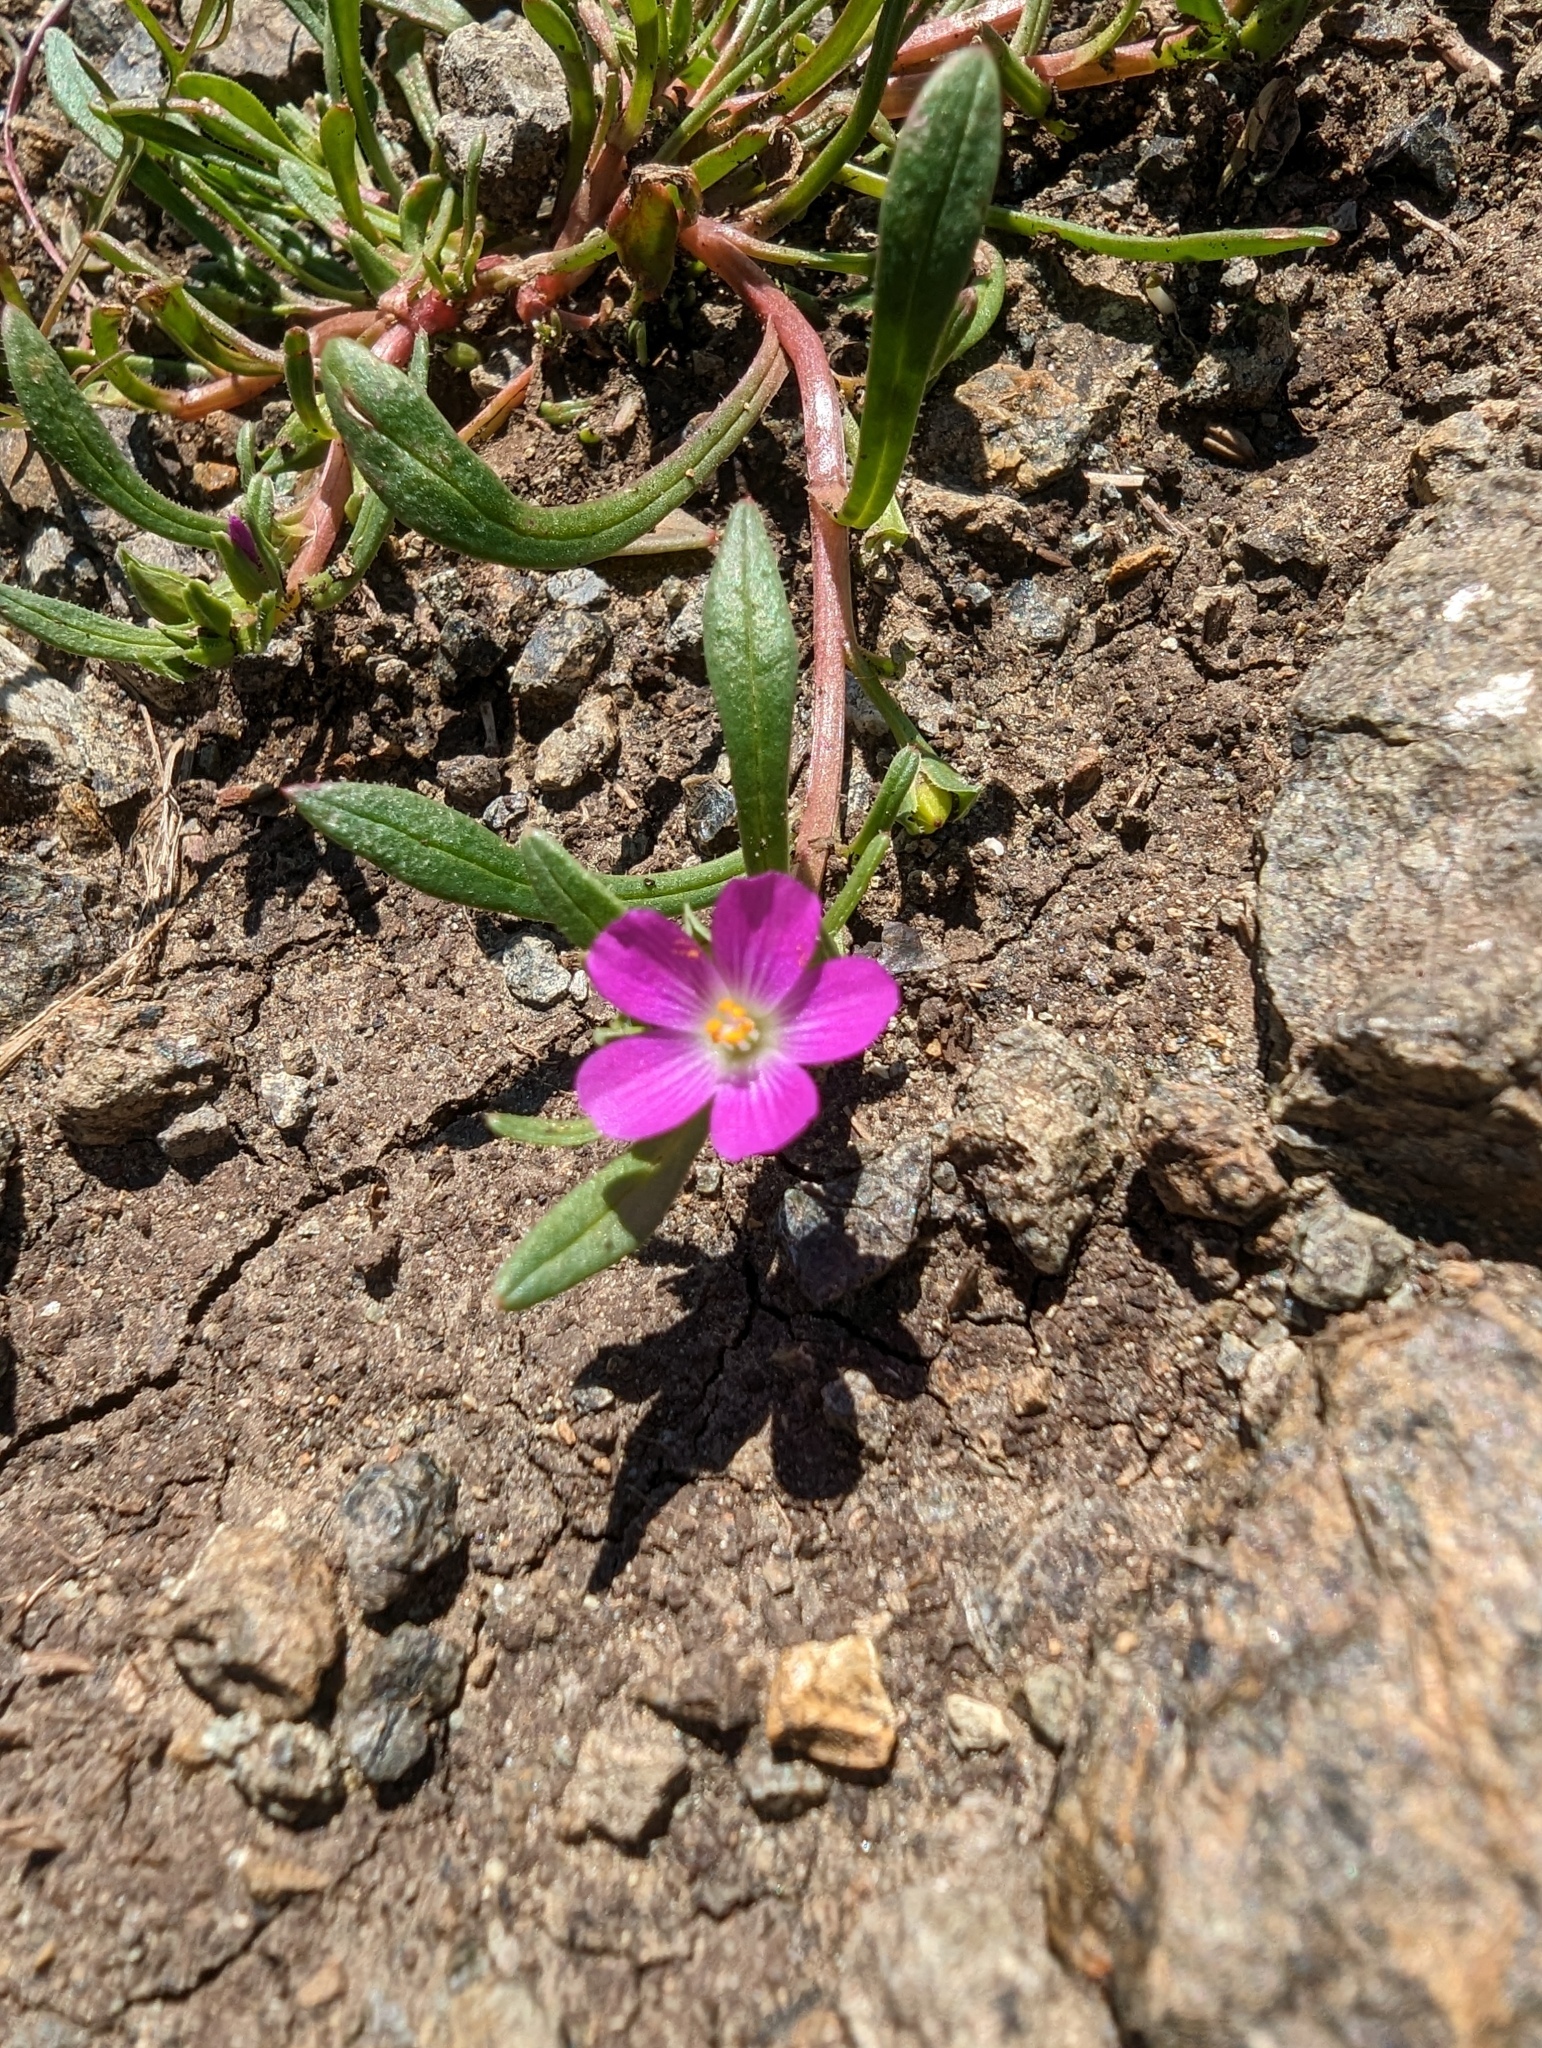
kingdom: Plantae
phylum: Tracheophyta
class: Magnoliopsida
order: Caryophyllales
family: Montiaceae
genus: Calandrinia
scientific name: Calandrinia menziesii
